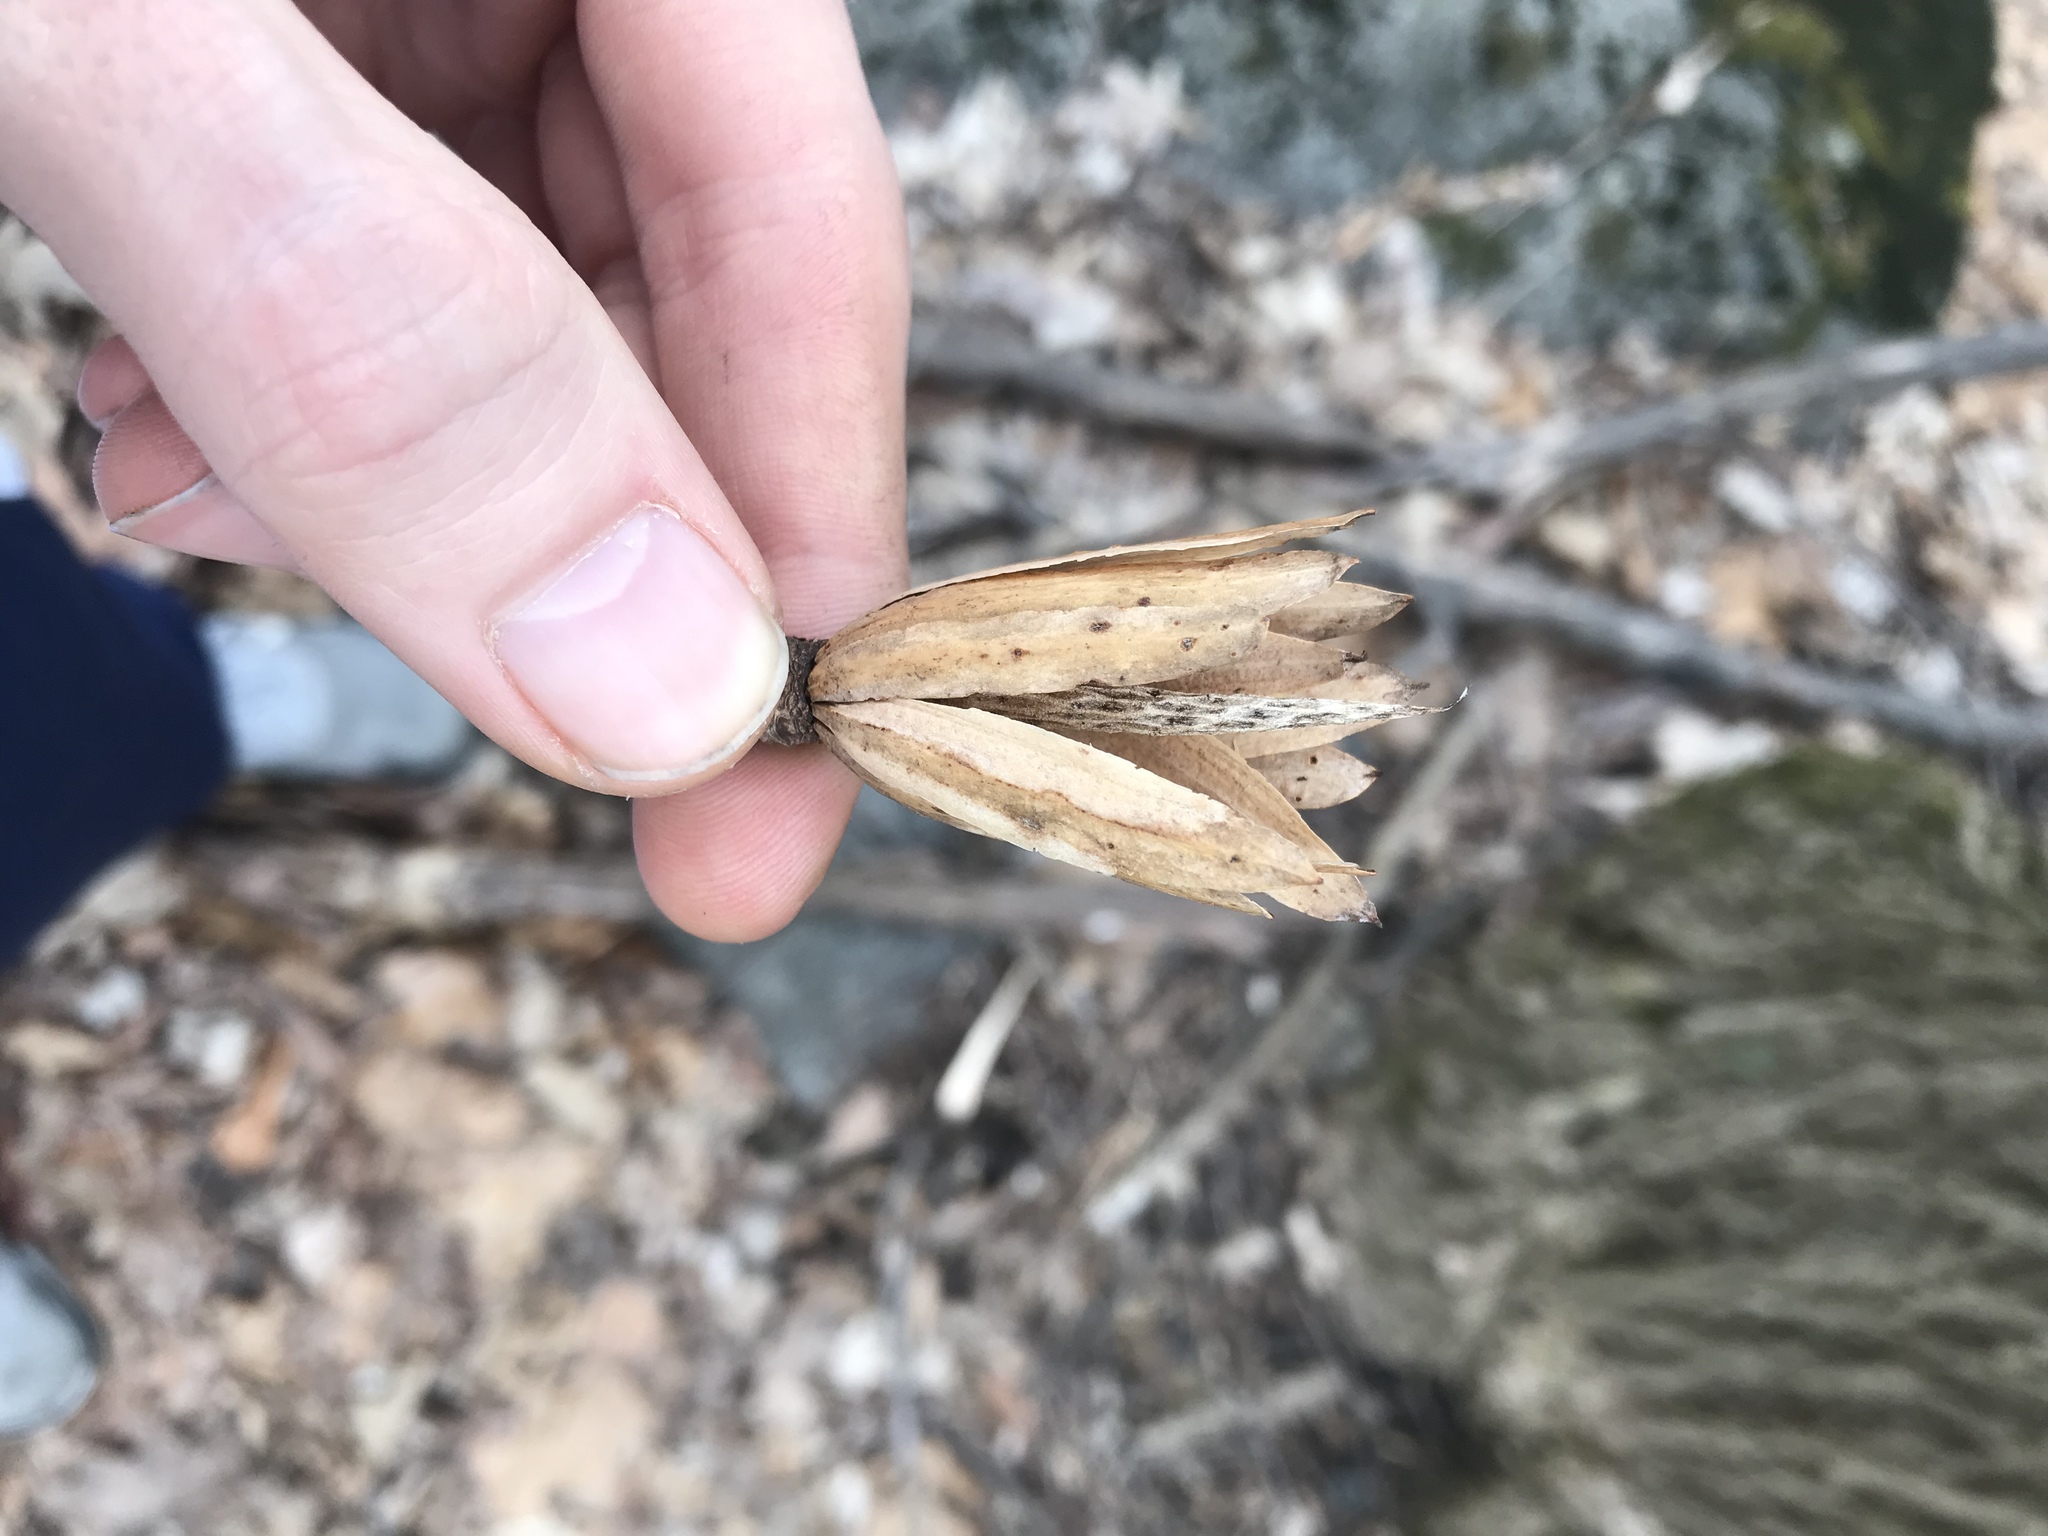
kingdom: Plantae
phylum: Tracheophyta
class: Magnoliopsida
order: Magnoliales
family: Magnoliaceae
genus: Liriodendron
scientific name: Liriodendron tulipifera
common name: Tulip tree
